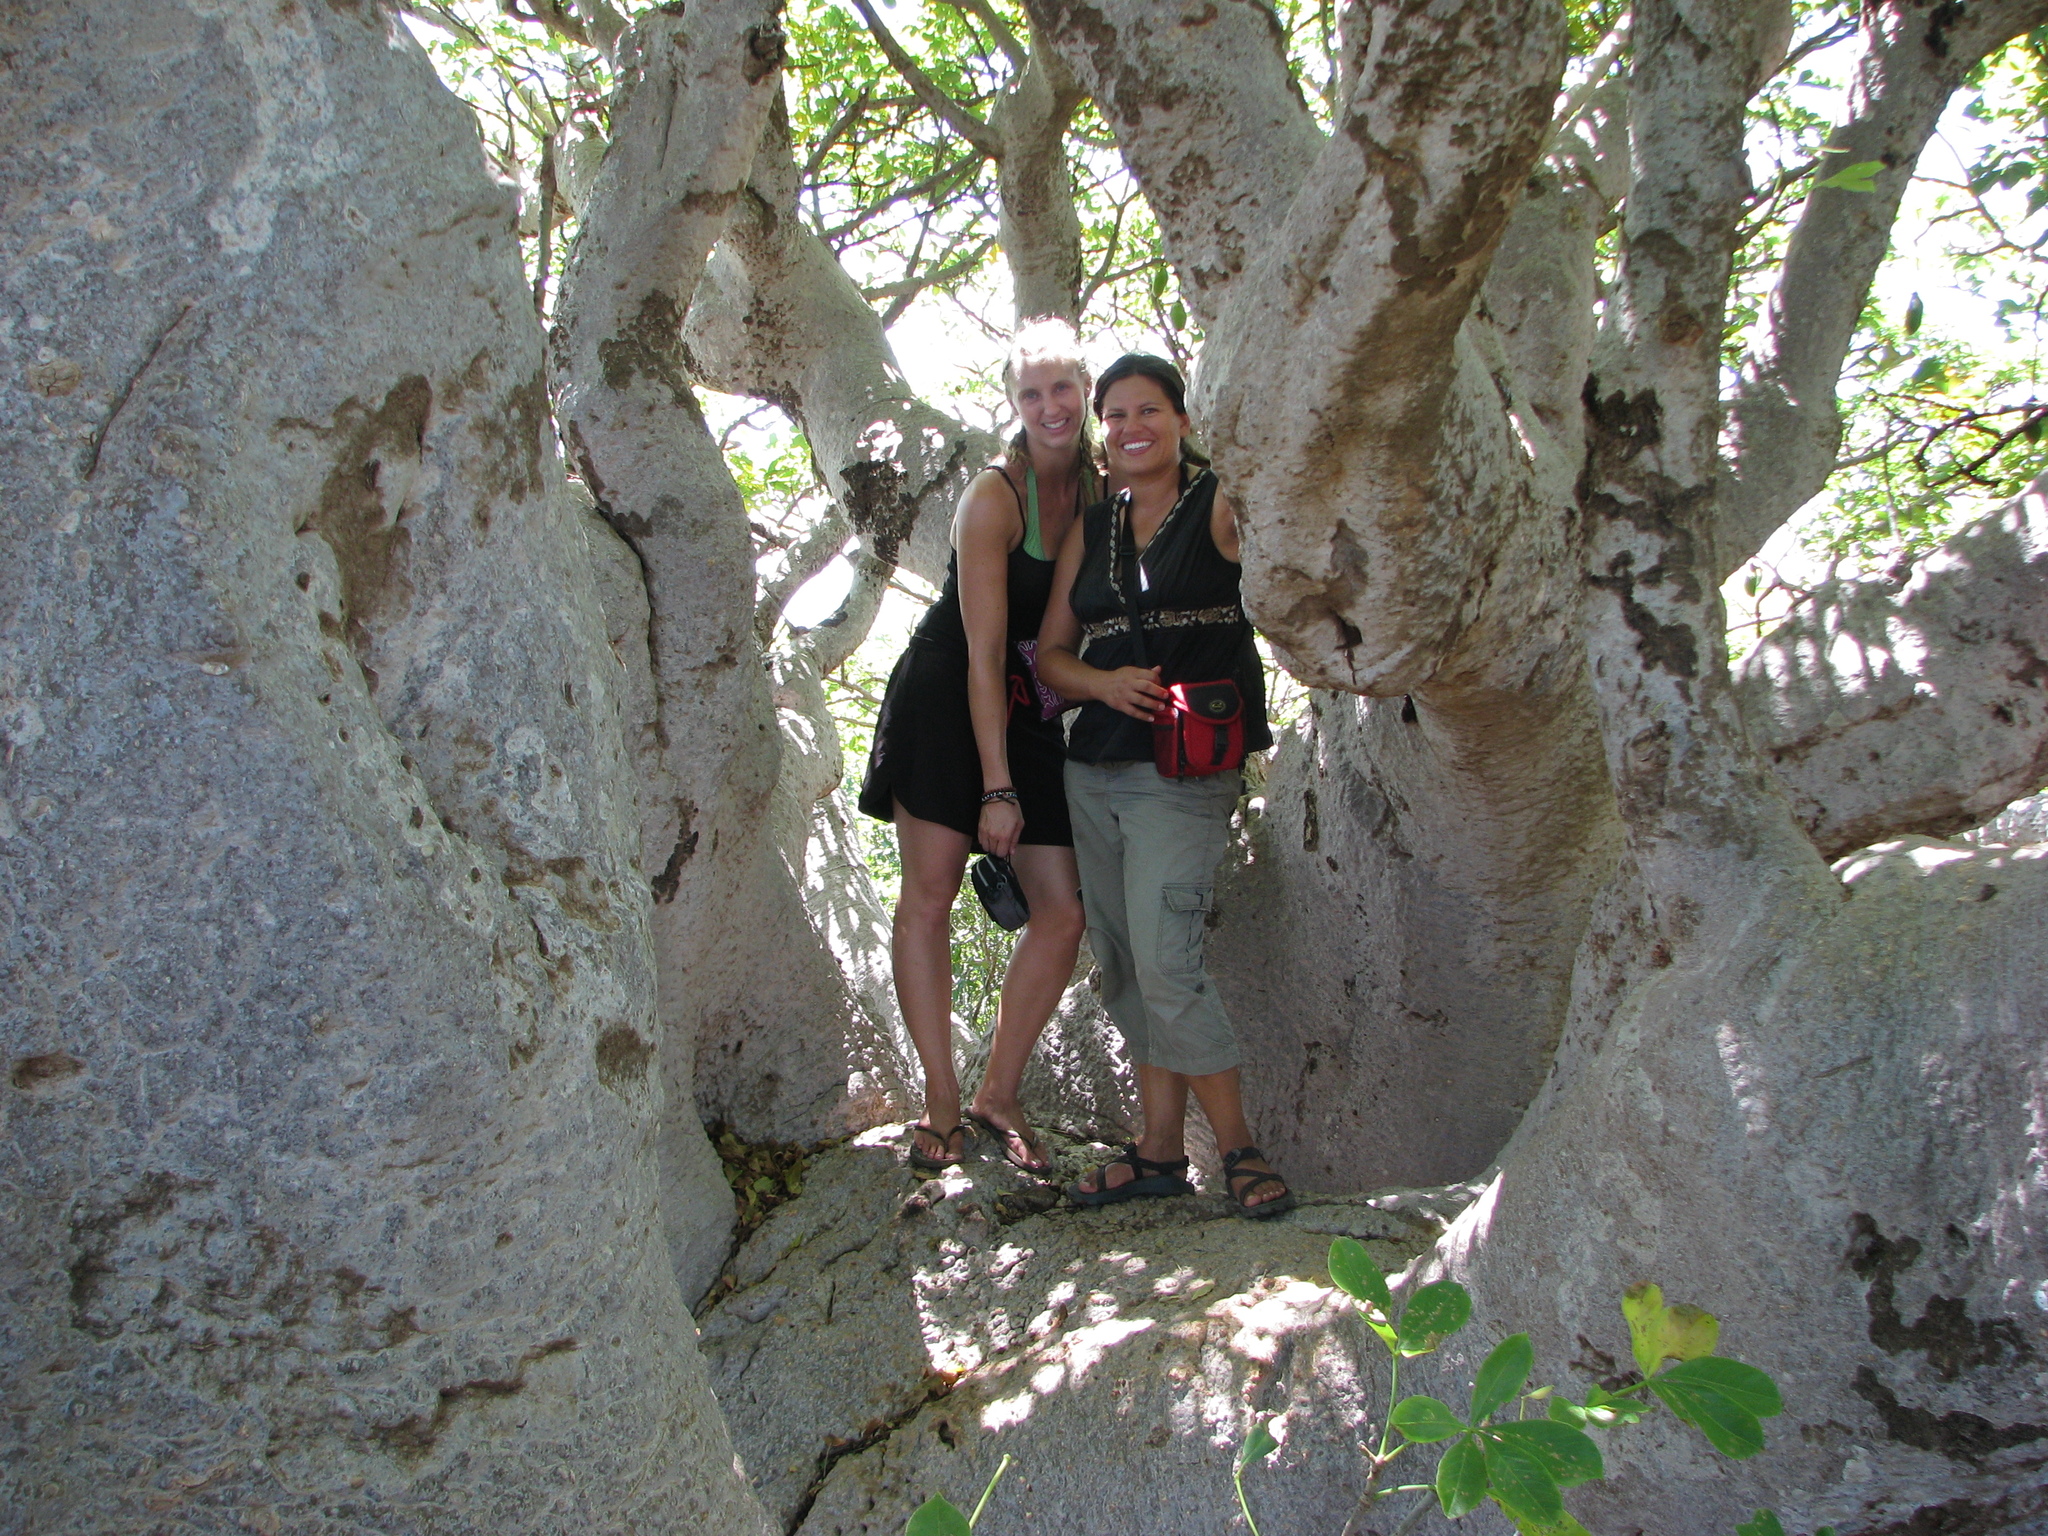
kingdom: Plantae
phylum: Tracheophyta
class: Magnoliopsida
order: Malvales
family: Malvaceae
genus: Adansonia
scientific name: Adansonia digitata
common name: Dead-rat-tree
